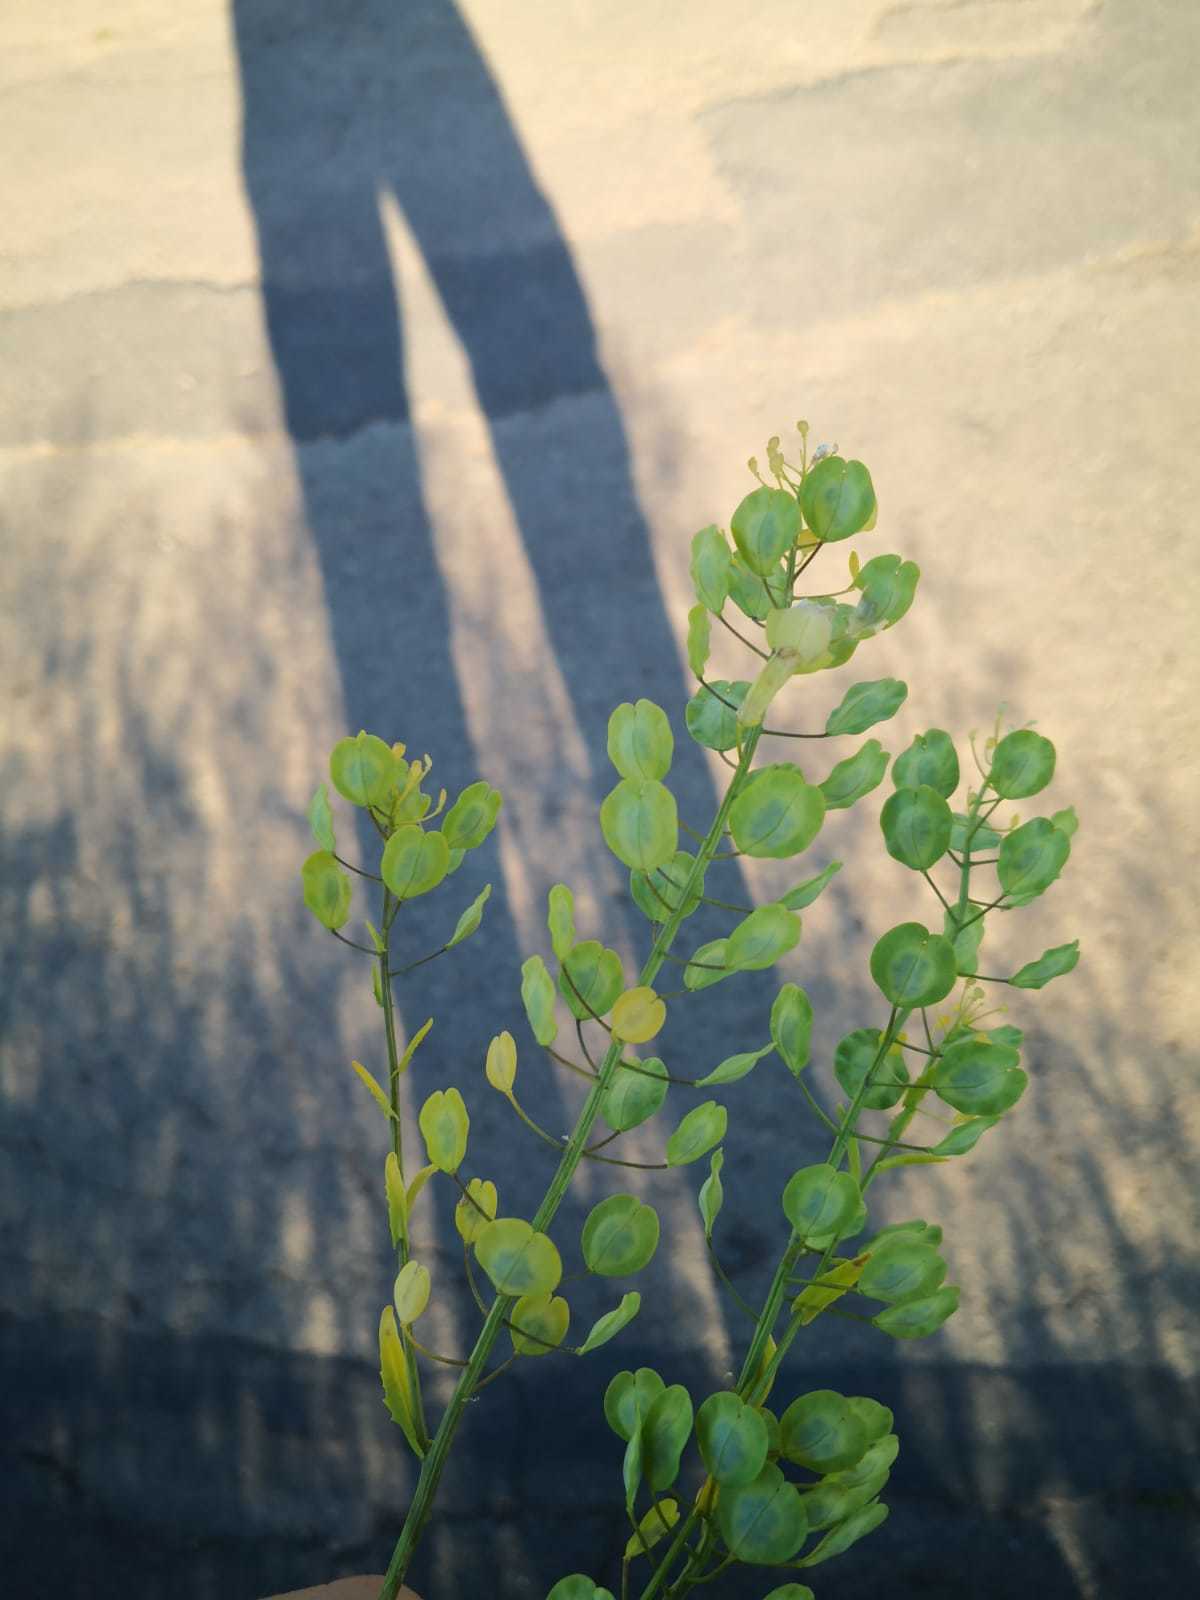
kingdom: Plantae
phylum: Tracheophyta
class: Magnoliopsida
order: Brassicales
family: Brassicaceae
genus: Thlaspi
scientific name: Thlaspi arvense
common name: Field pennycress
